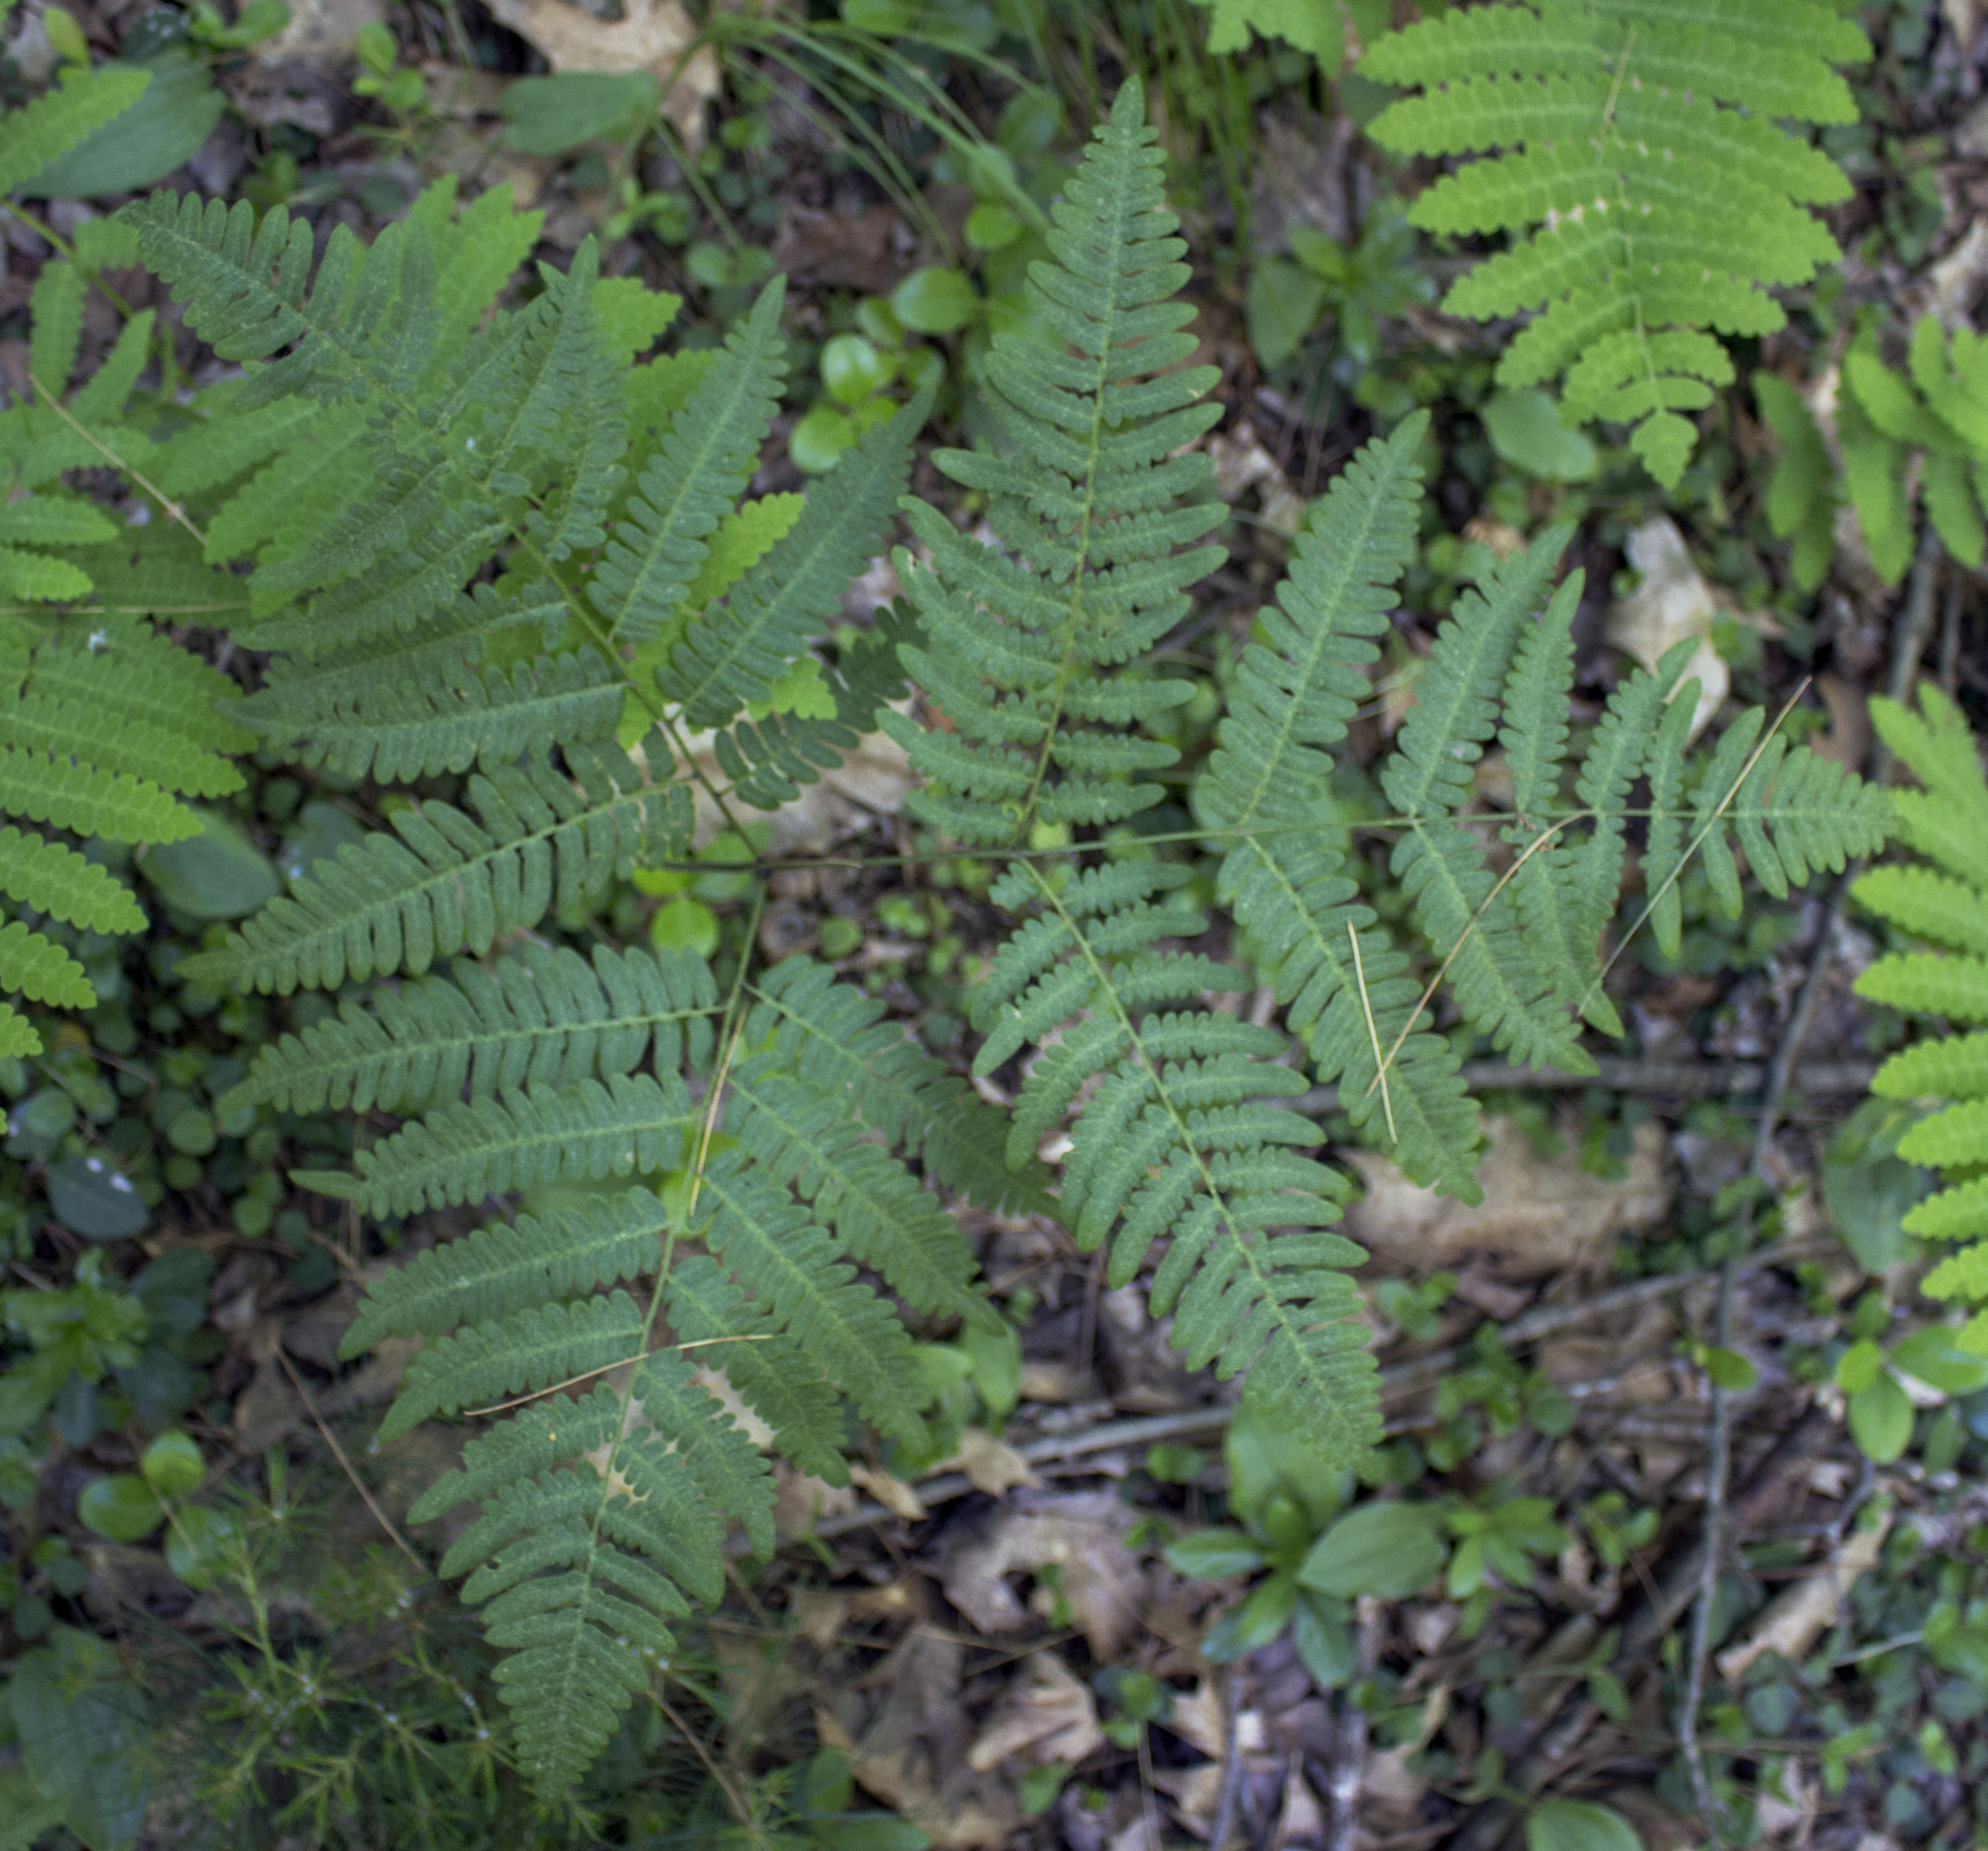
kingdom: Plantae
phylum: Tracheophyta
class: Polypodiopsida
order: Polypodiales
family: Dennstaedtiaceae
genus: Pteridium
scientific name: Pteridium aquilinum
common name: Bracken
